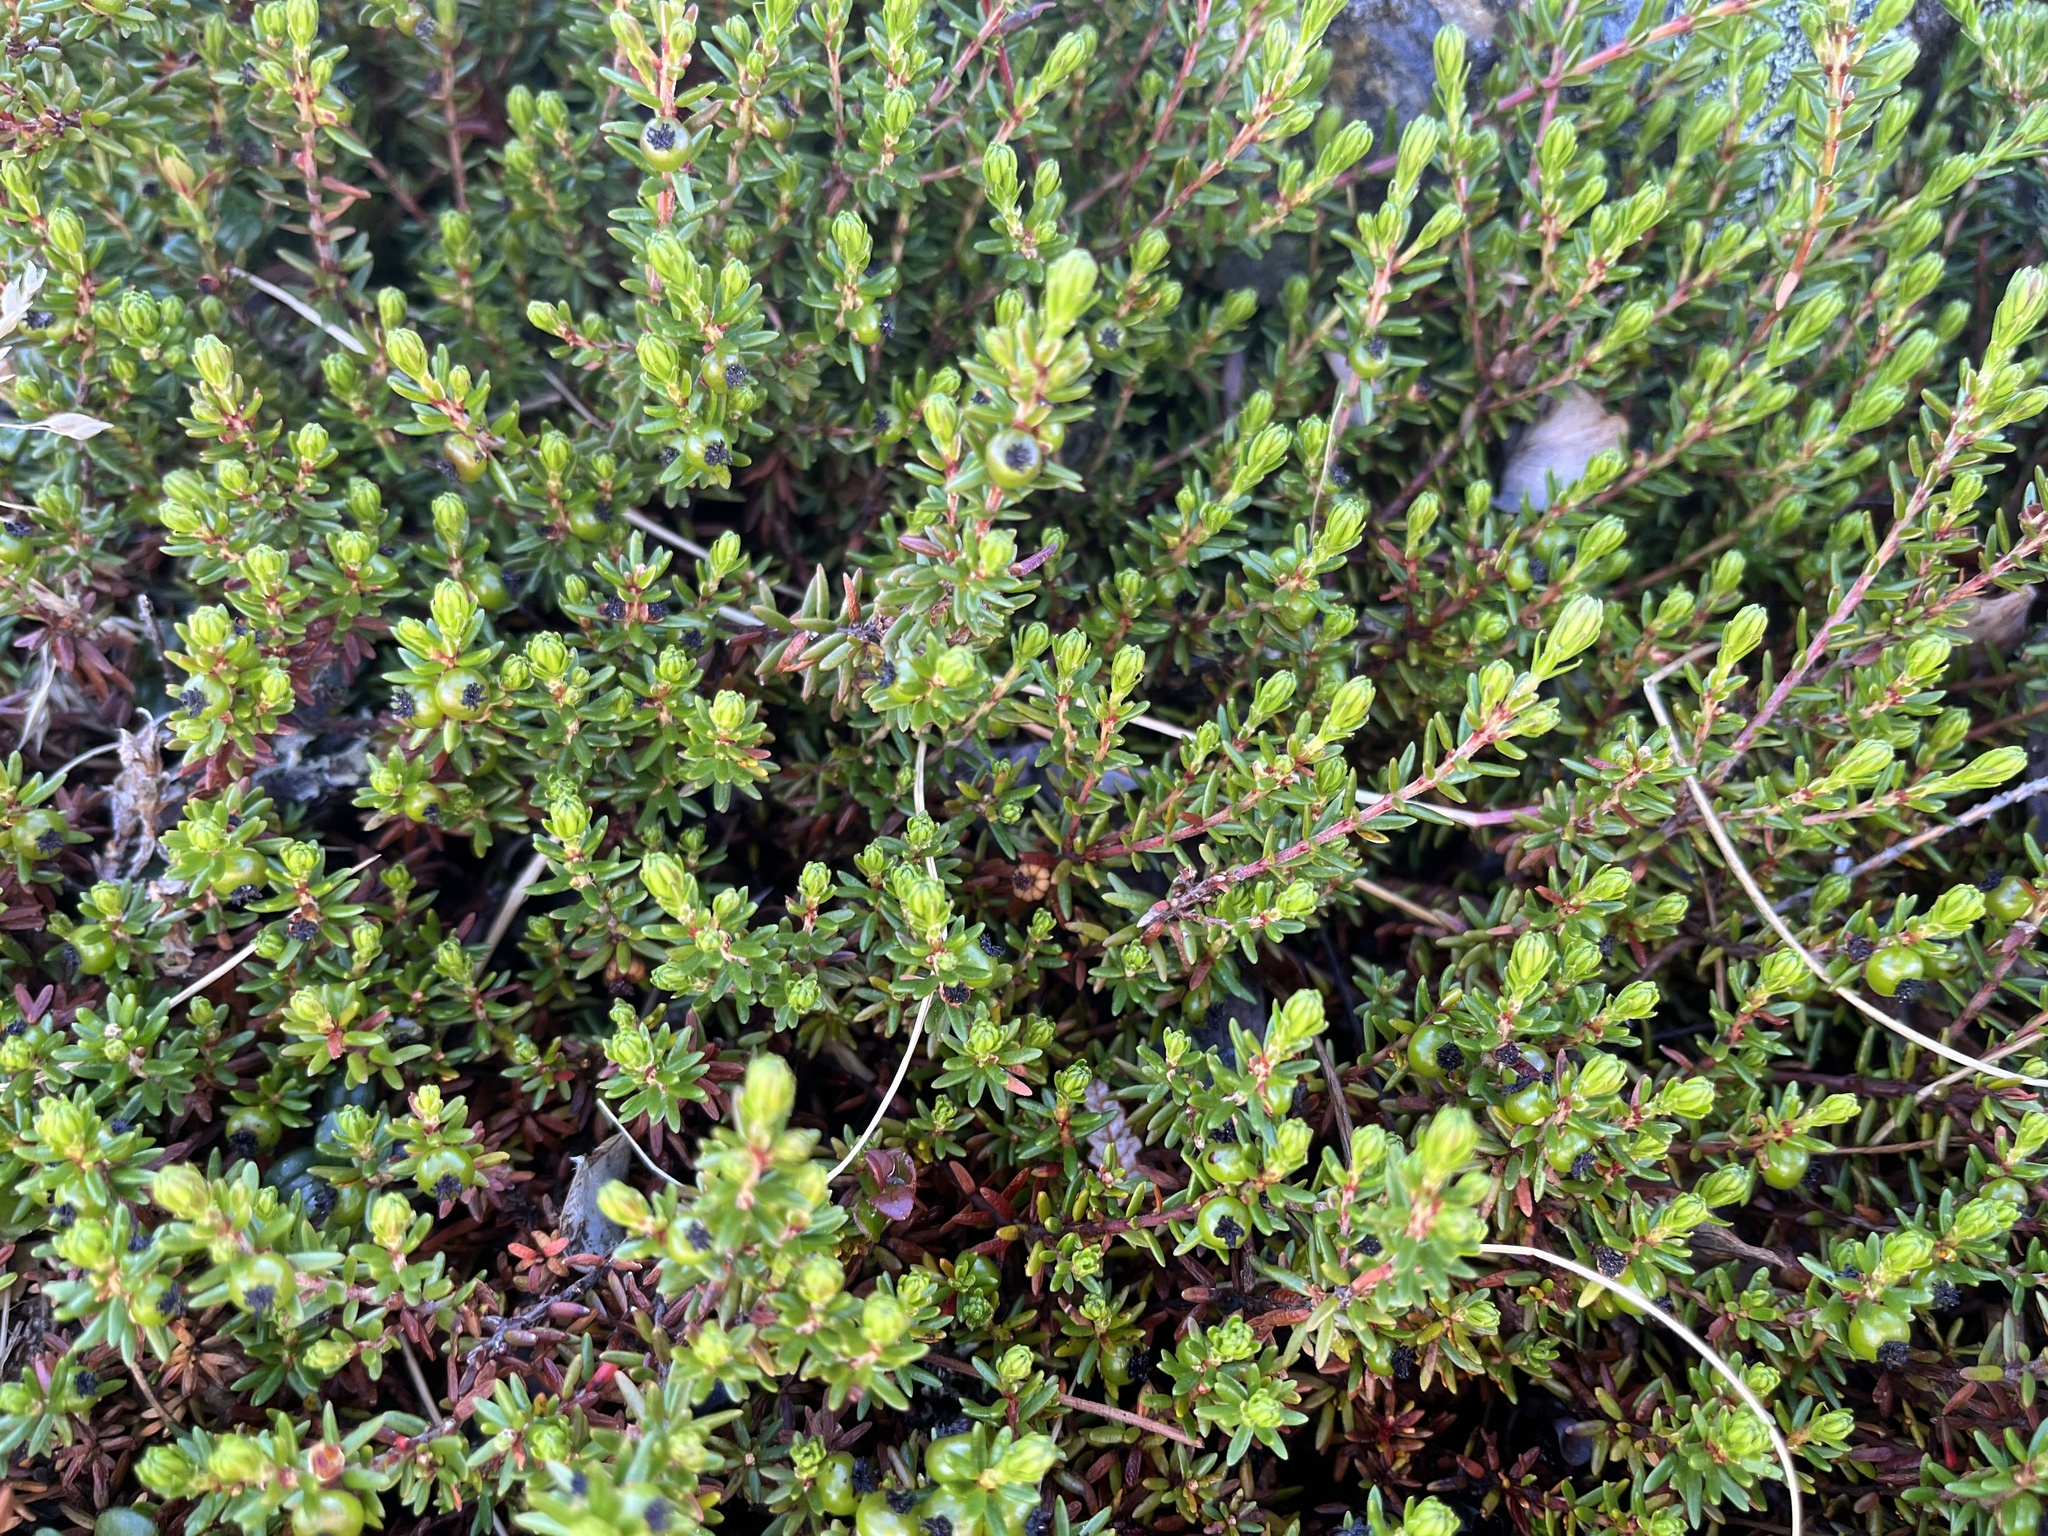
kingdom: Plantae
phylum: Tracheophyta
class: Magnoliopsida
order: Ericales
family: Ericaceae
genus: Empetrum
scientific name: Empetrum nigrum
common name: Black crowberry
